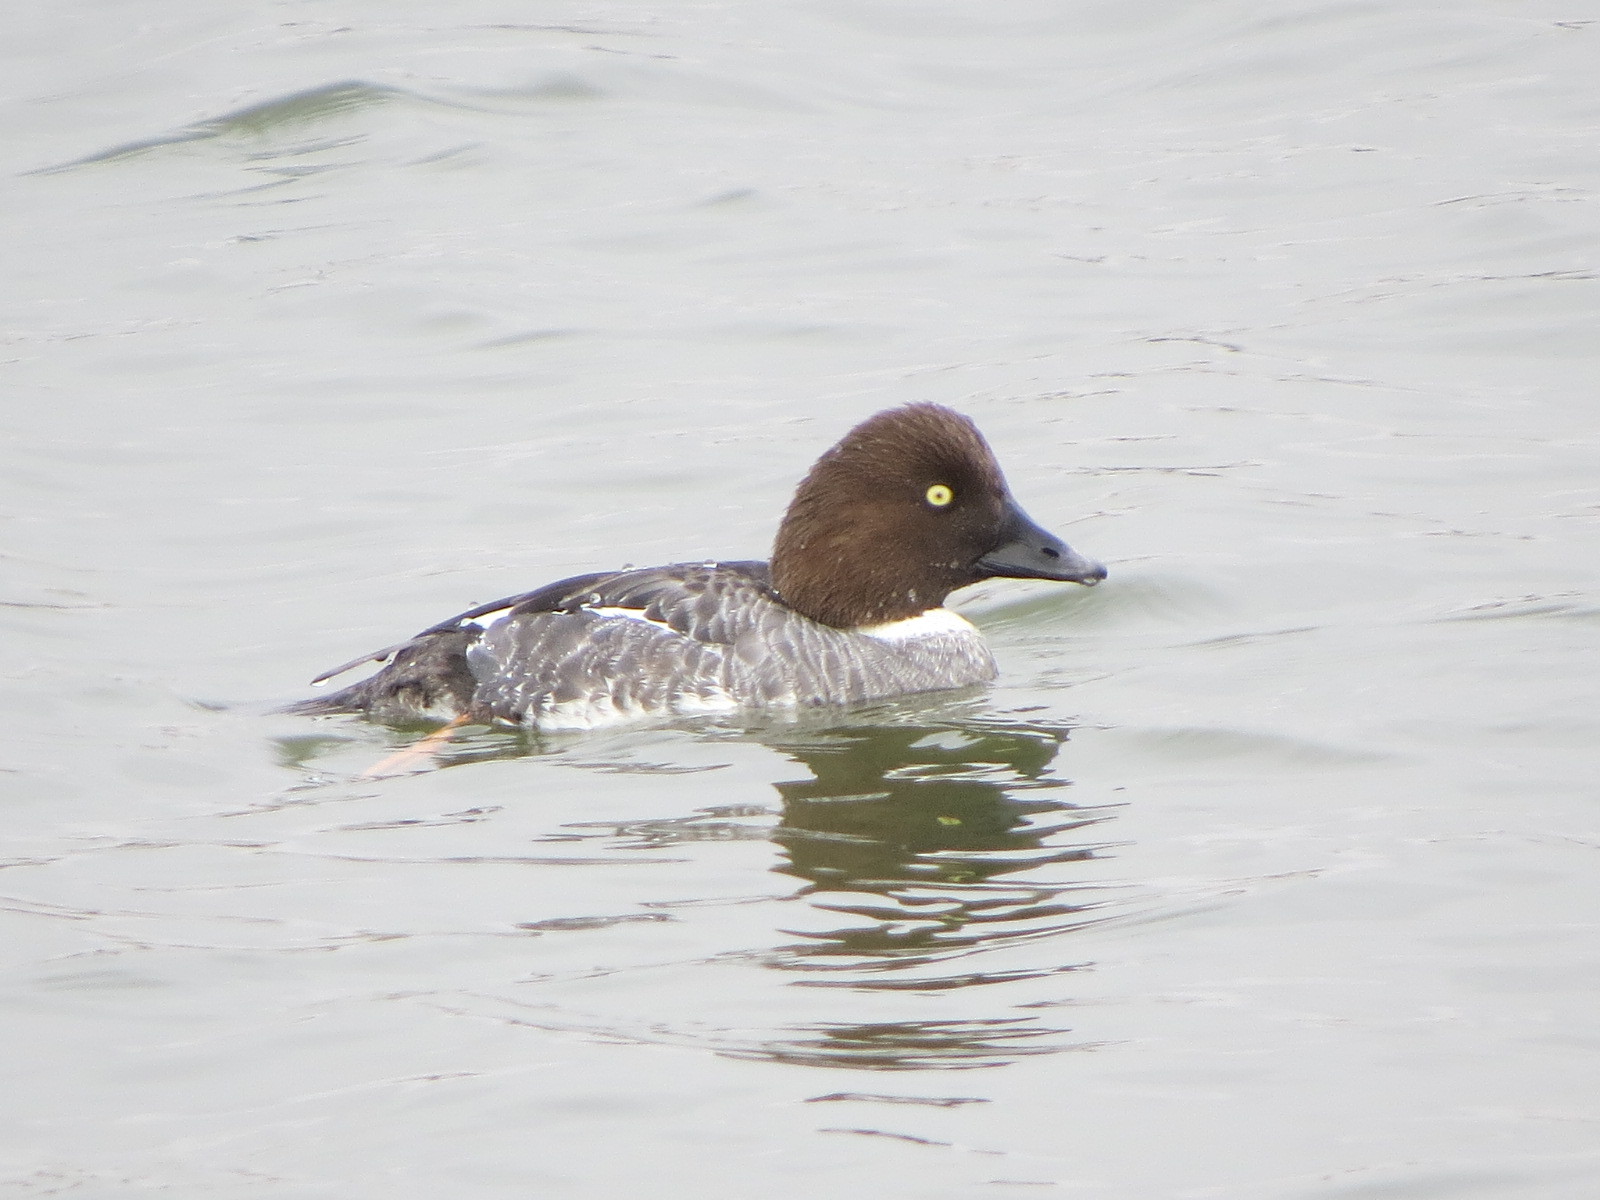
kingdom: Animalia
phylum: Chordata
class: Aves
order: Anseriformes
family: Anatidae
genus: Bucephala
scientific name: Bucephala clangula
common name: Common goldeneye
